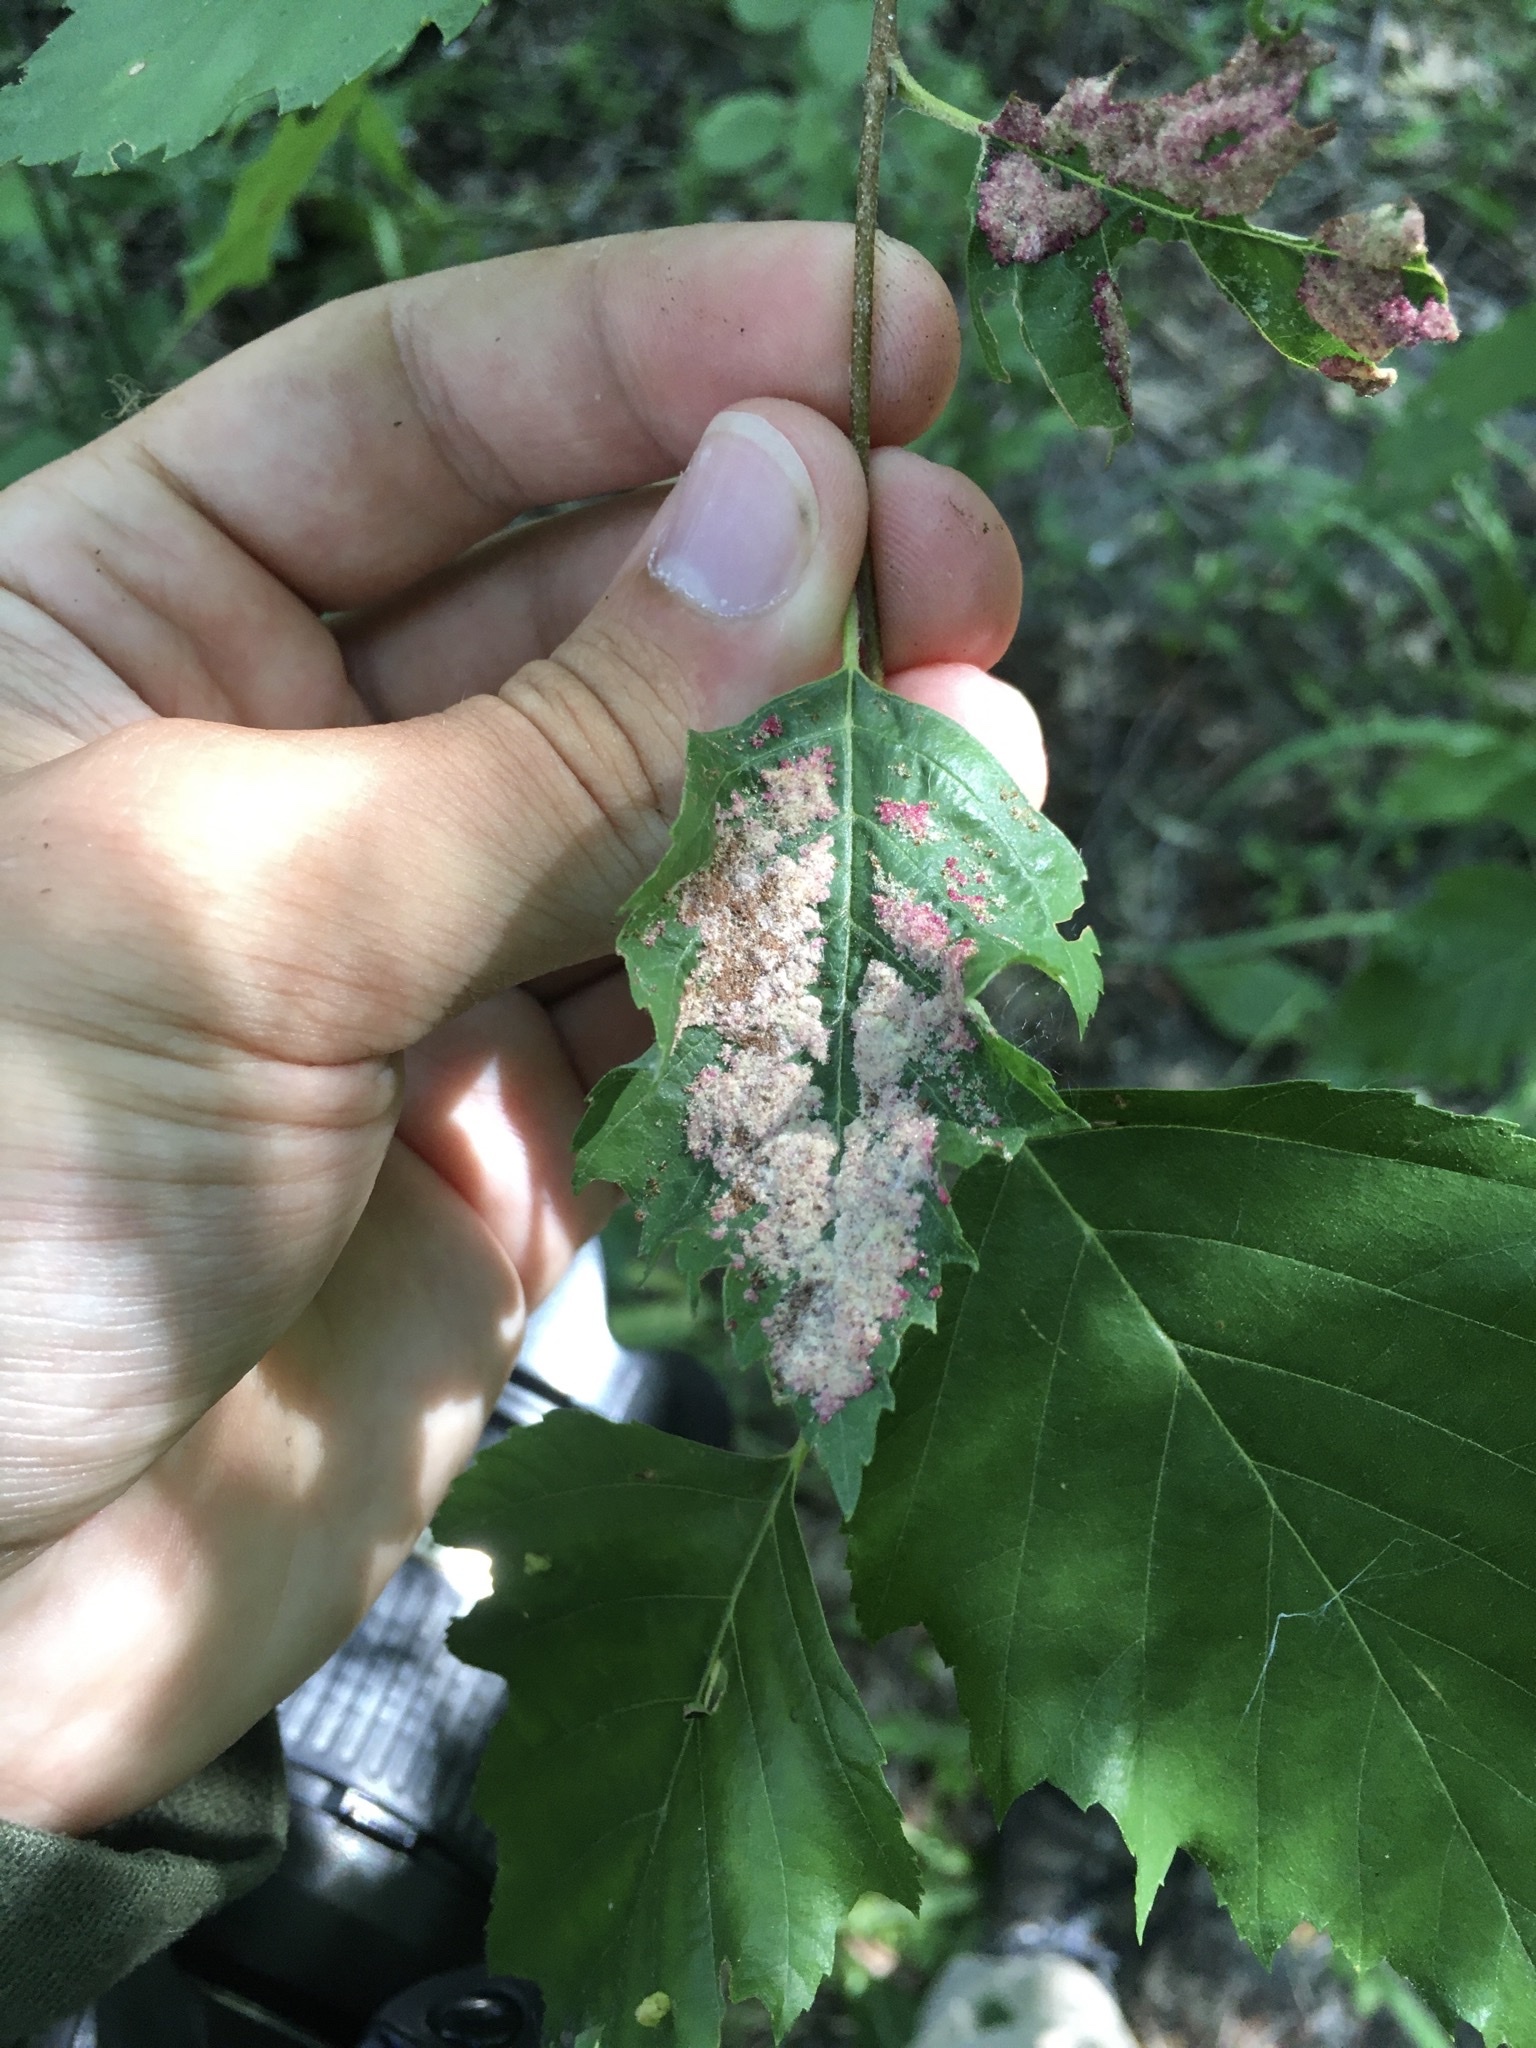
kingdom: Animalia
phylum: Arthropoda
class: Arachnida
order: Trombidiformes
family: Eriophyidae
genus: Acalitus
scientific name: Acalitus longisetosus
